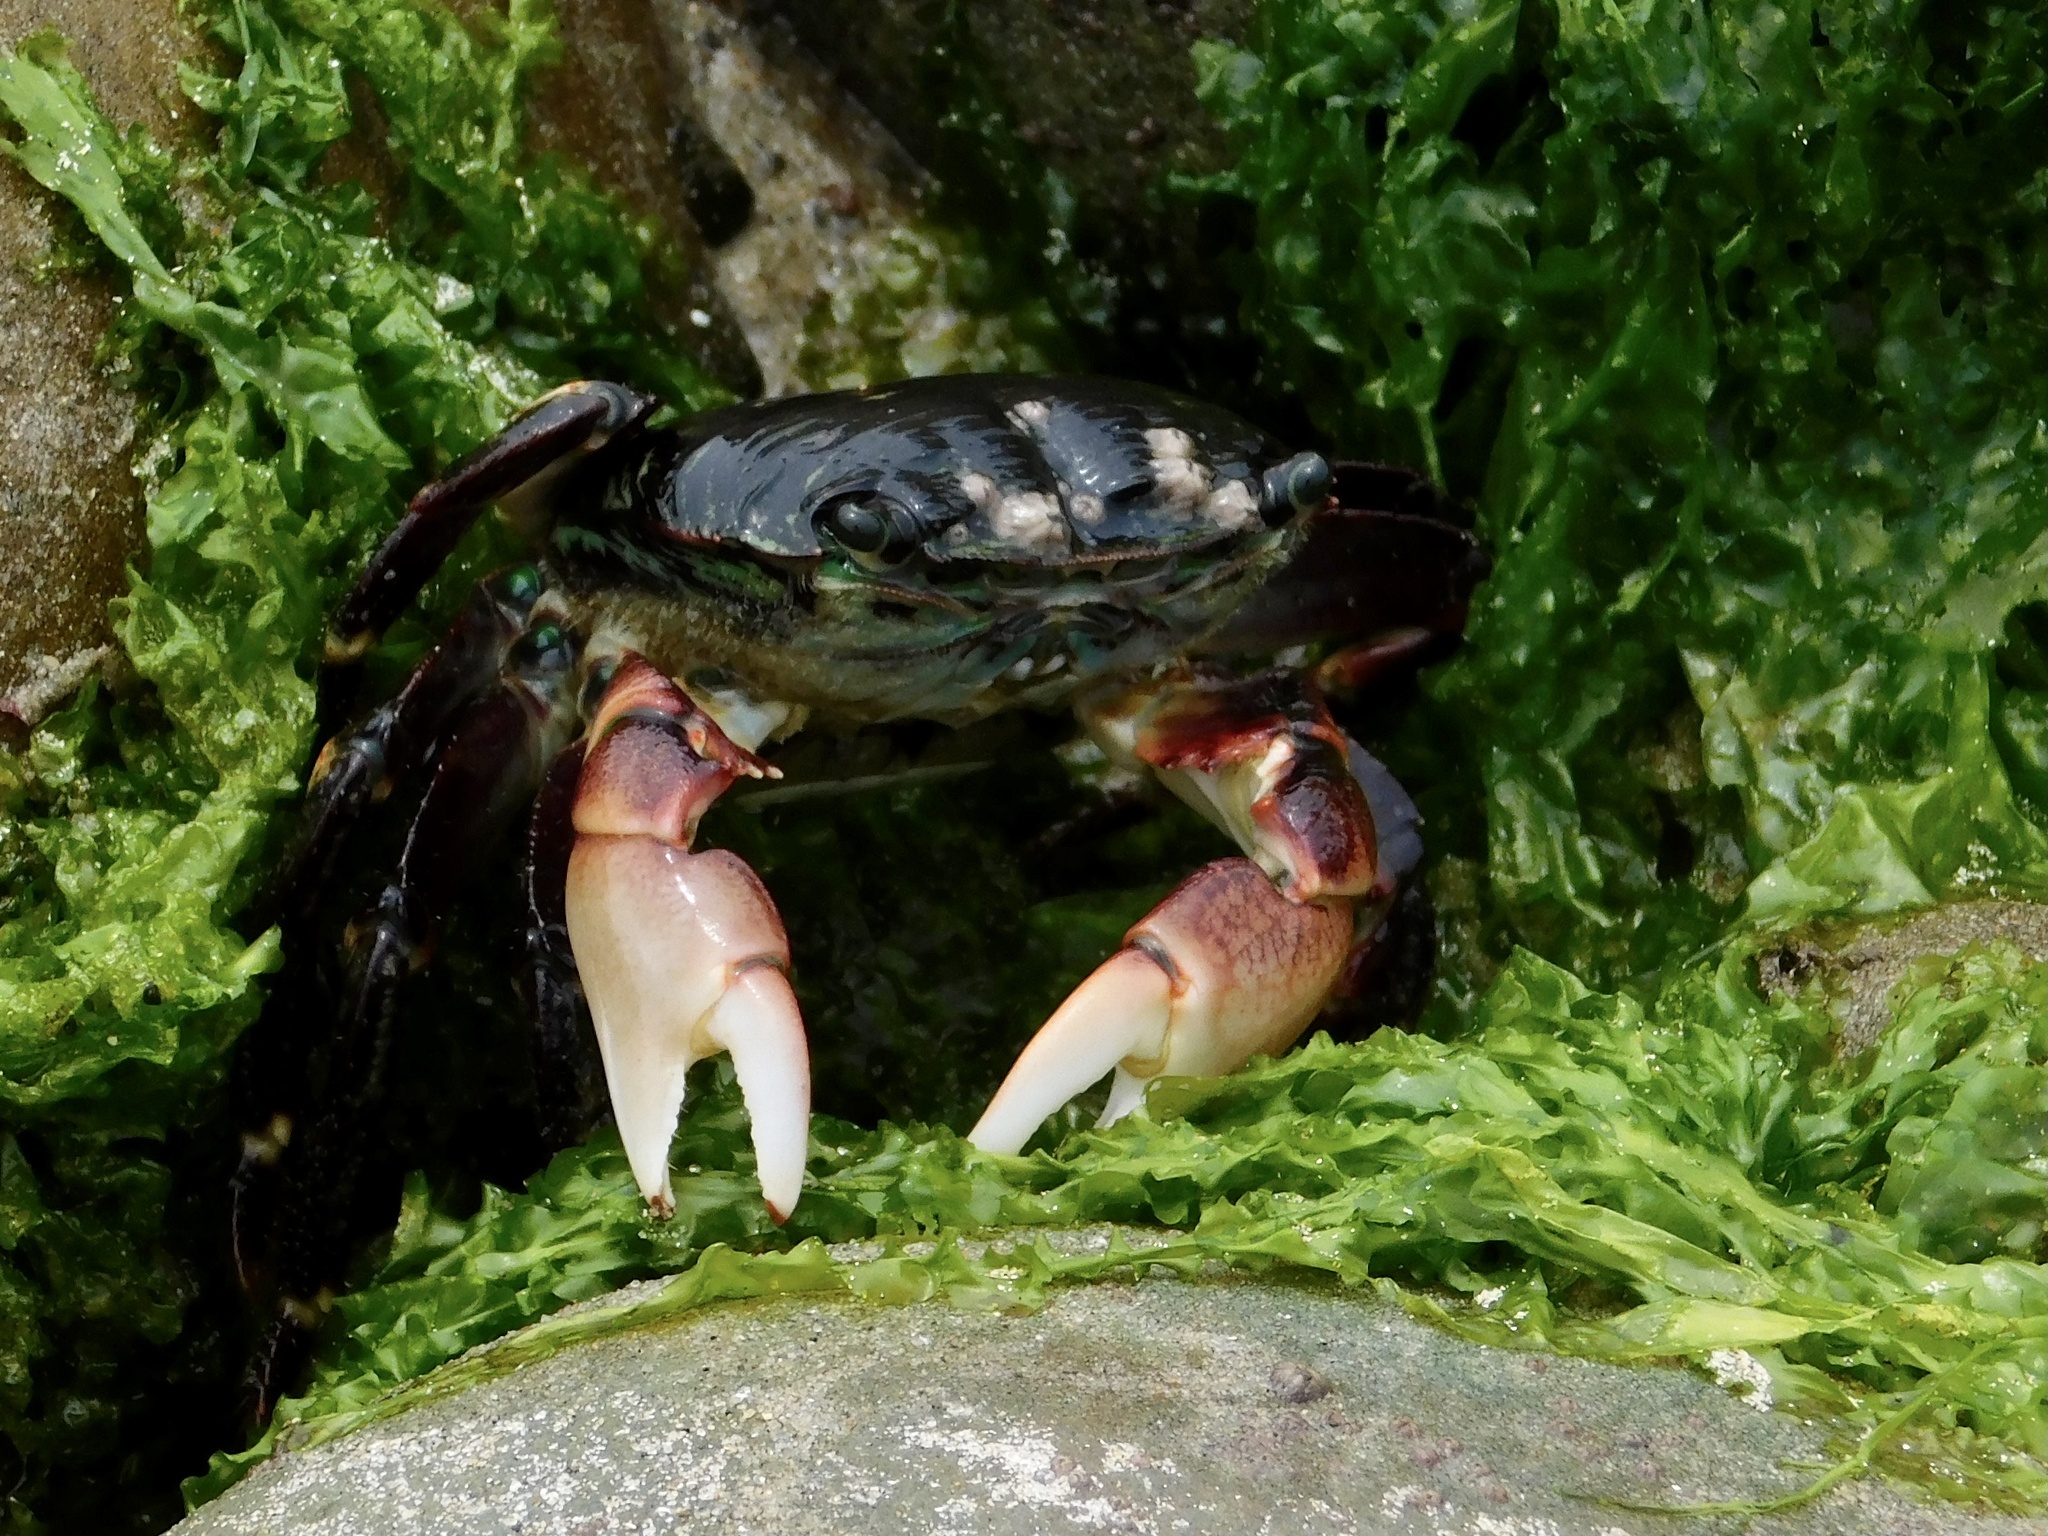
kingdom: Animalia
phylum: Arthropoda
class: Malacostraca
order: Decapoda
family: Grapsidae
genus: Pachygrapsus
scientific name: Pachygrapsus crassipes
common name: Striped shore crab
